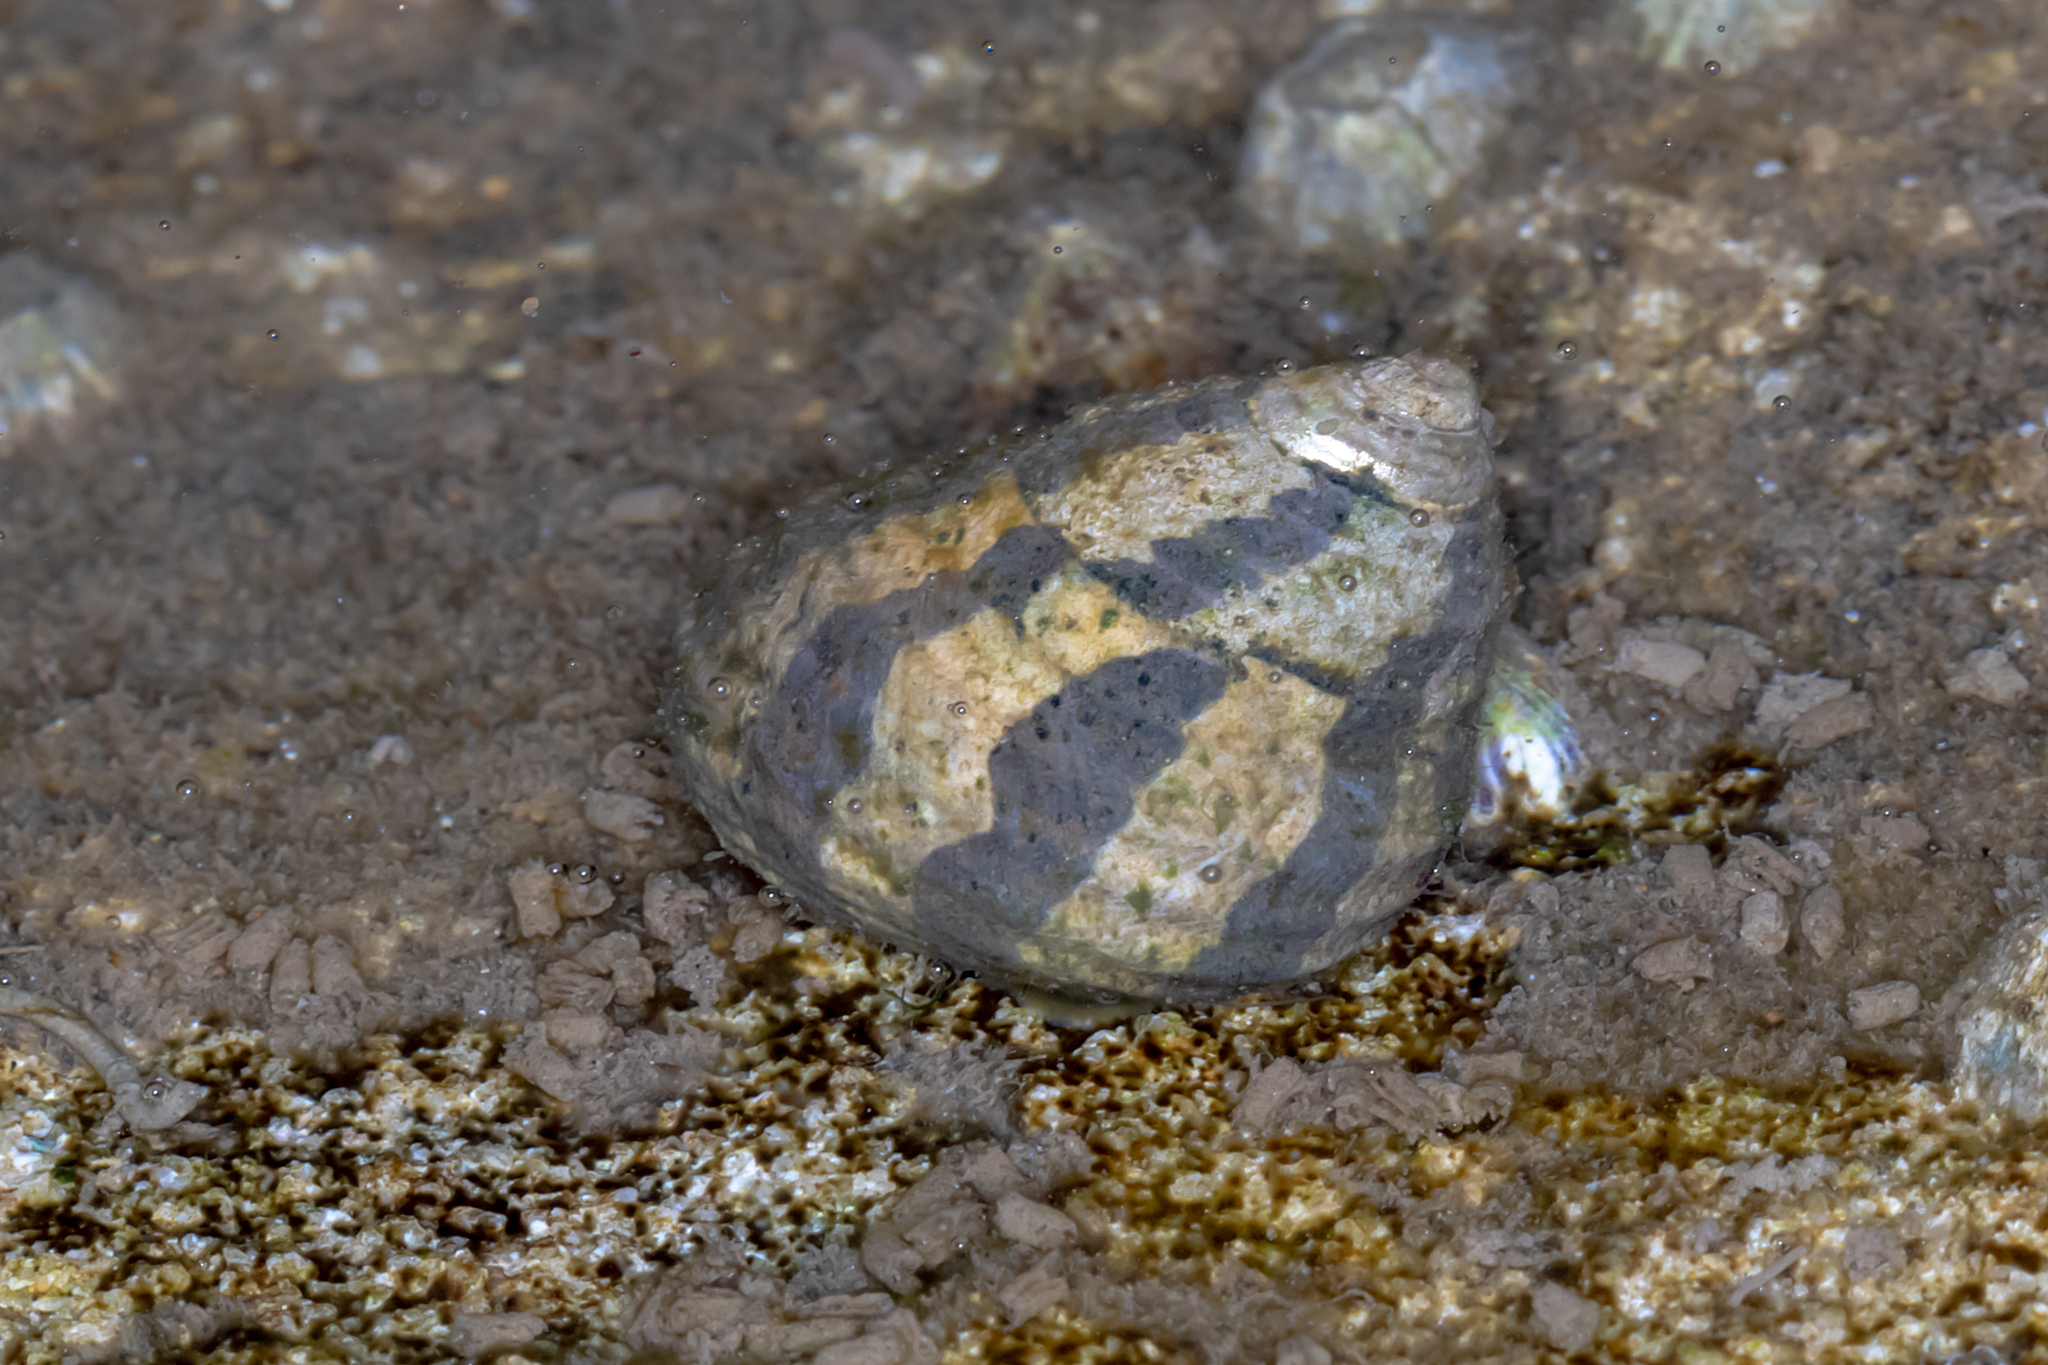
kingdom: Animalia
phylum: Mollusca
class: Gastropoda
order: Trochida
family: Trochidae
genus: Austrocochlea
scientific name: Austrocochlea porcata
